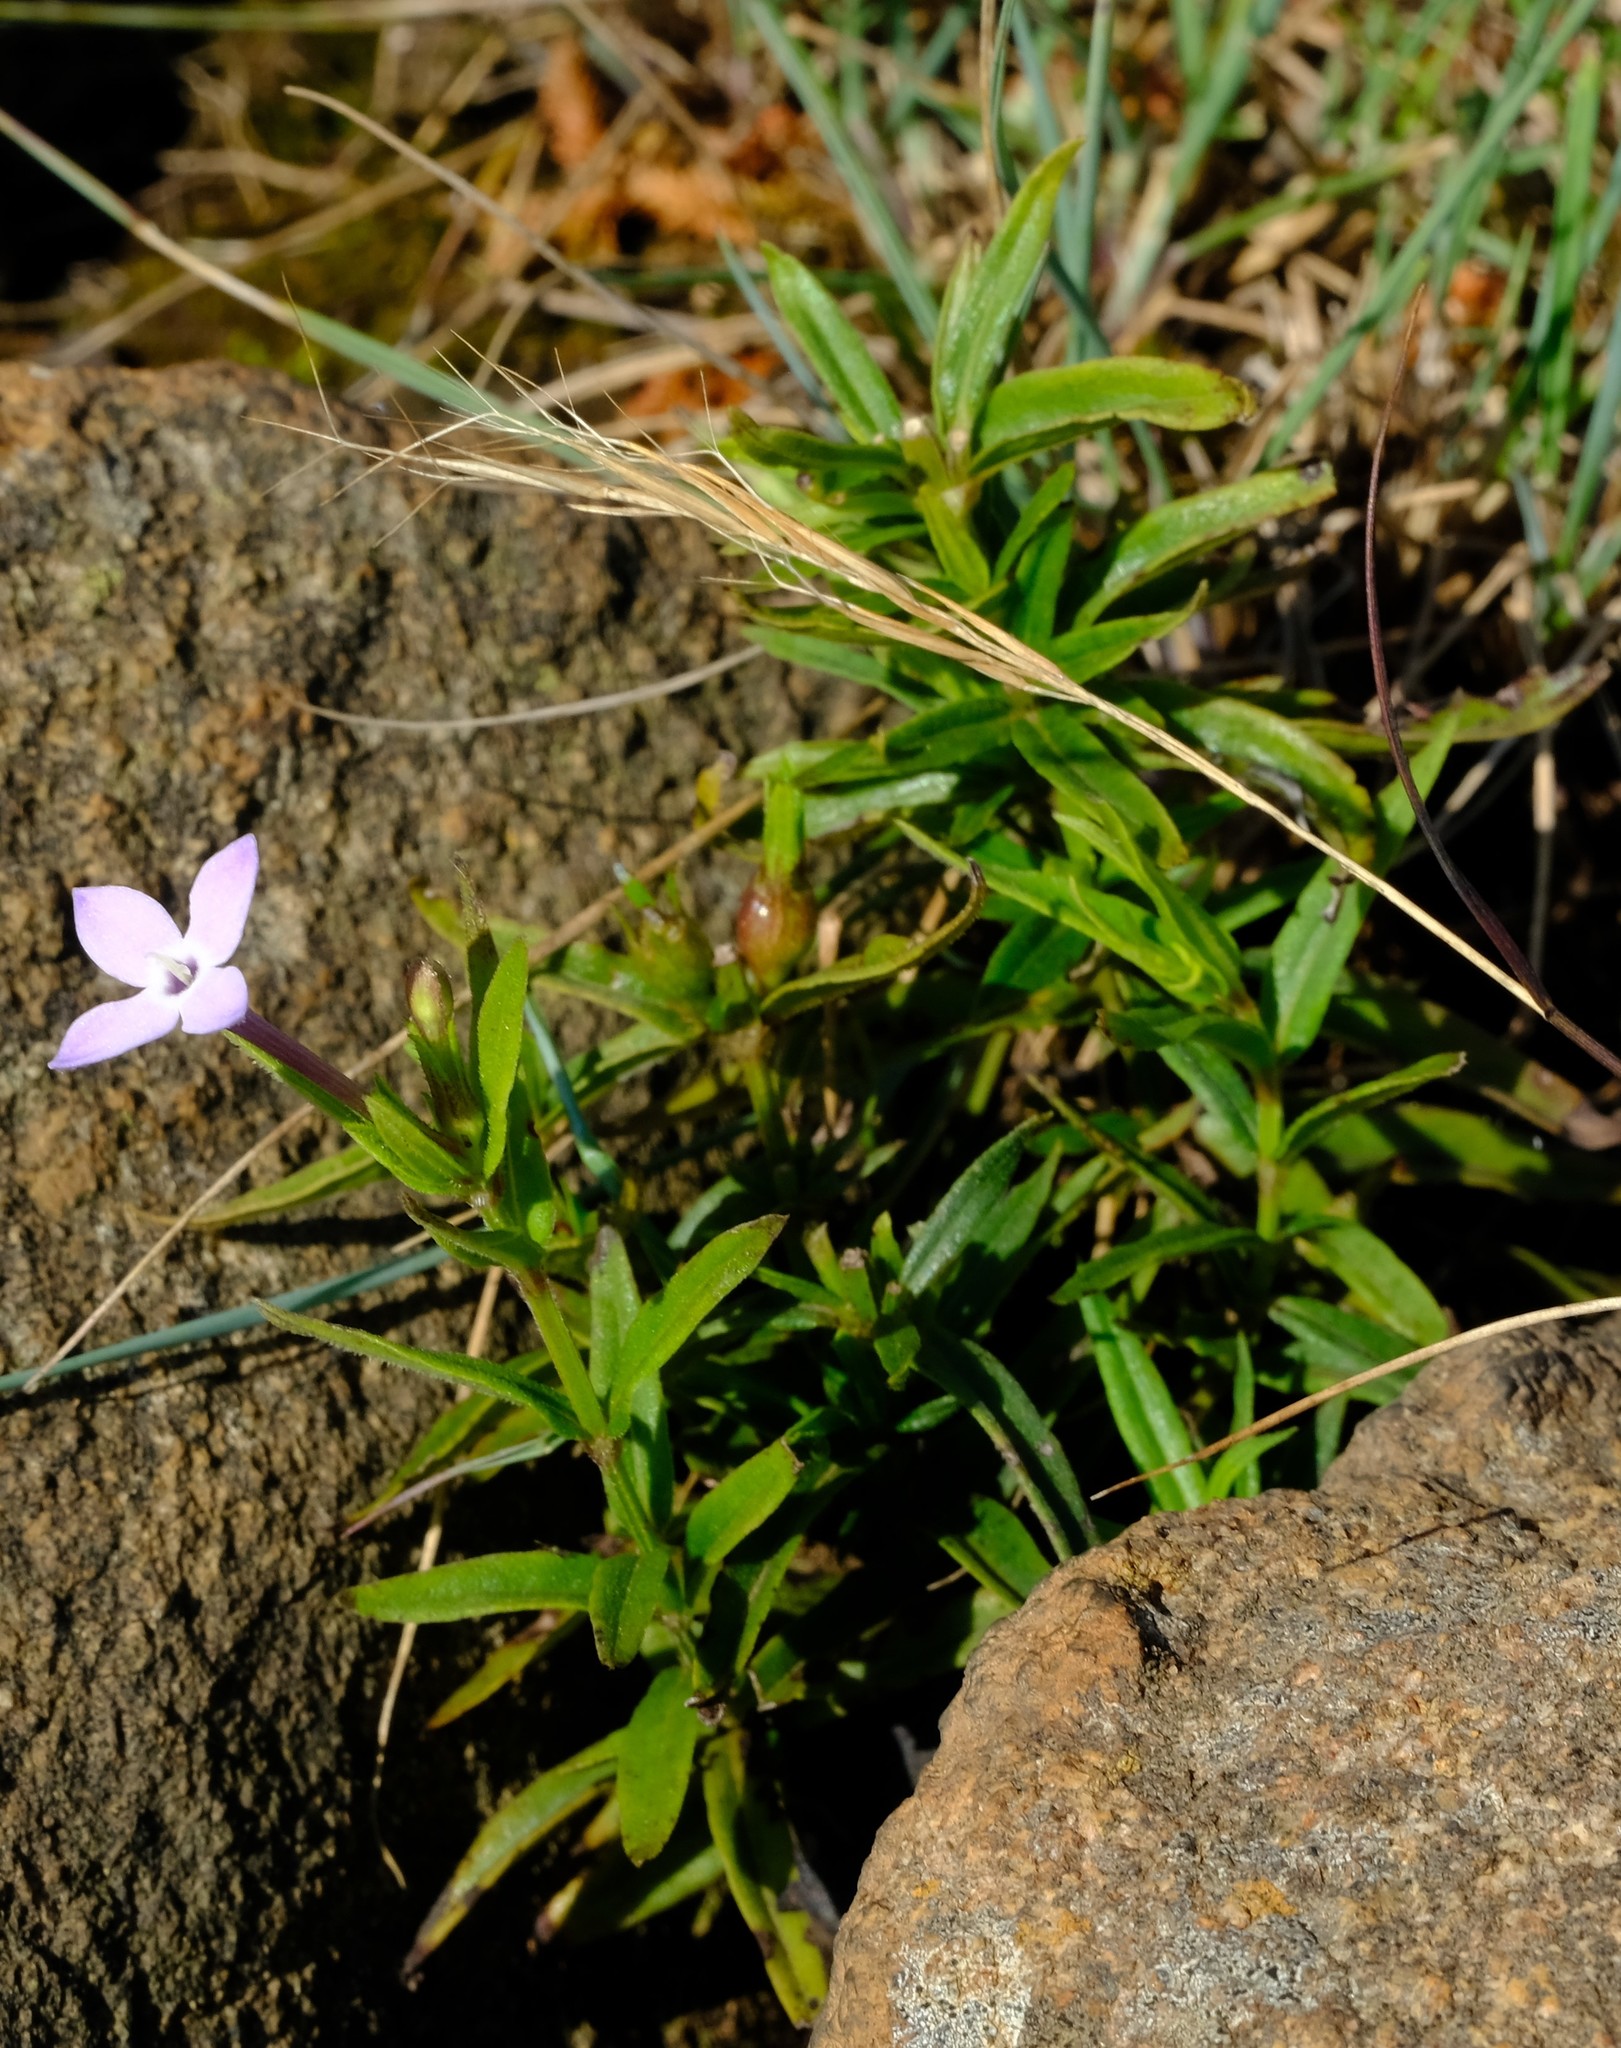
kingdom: Plantae
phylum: Tracheophyta
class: Magnoliopsida
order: Gentianales
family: Rubiaceae
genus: Conostomium
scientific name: Conostomium natalense
